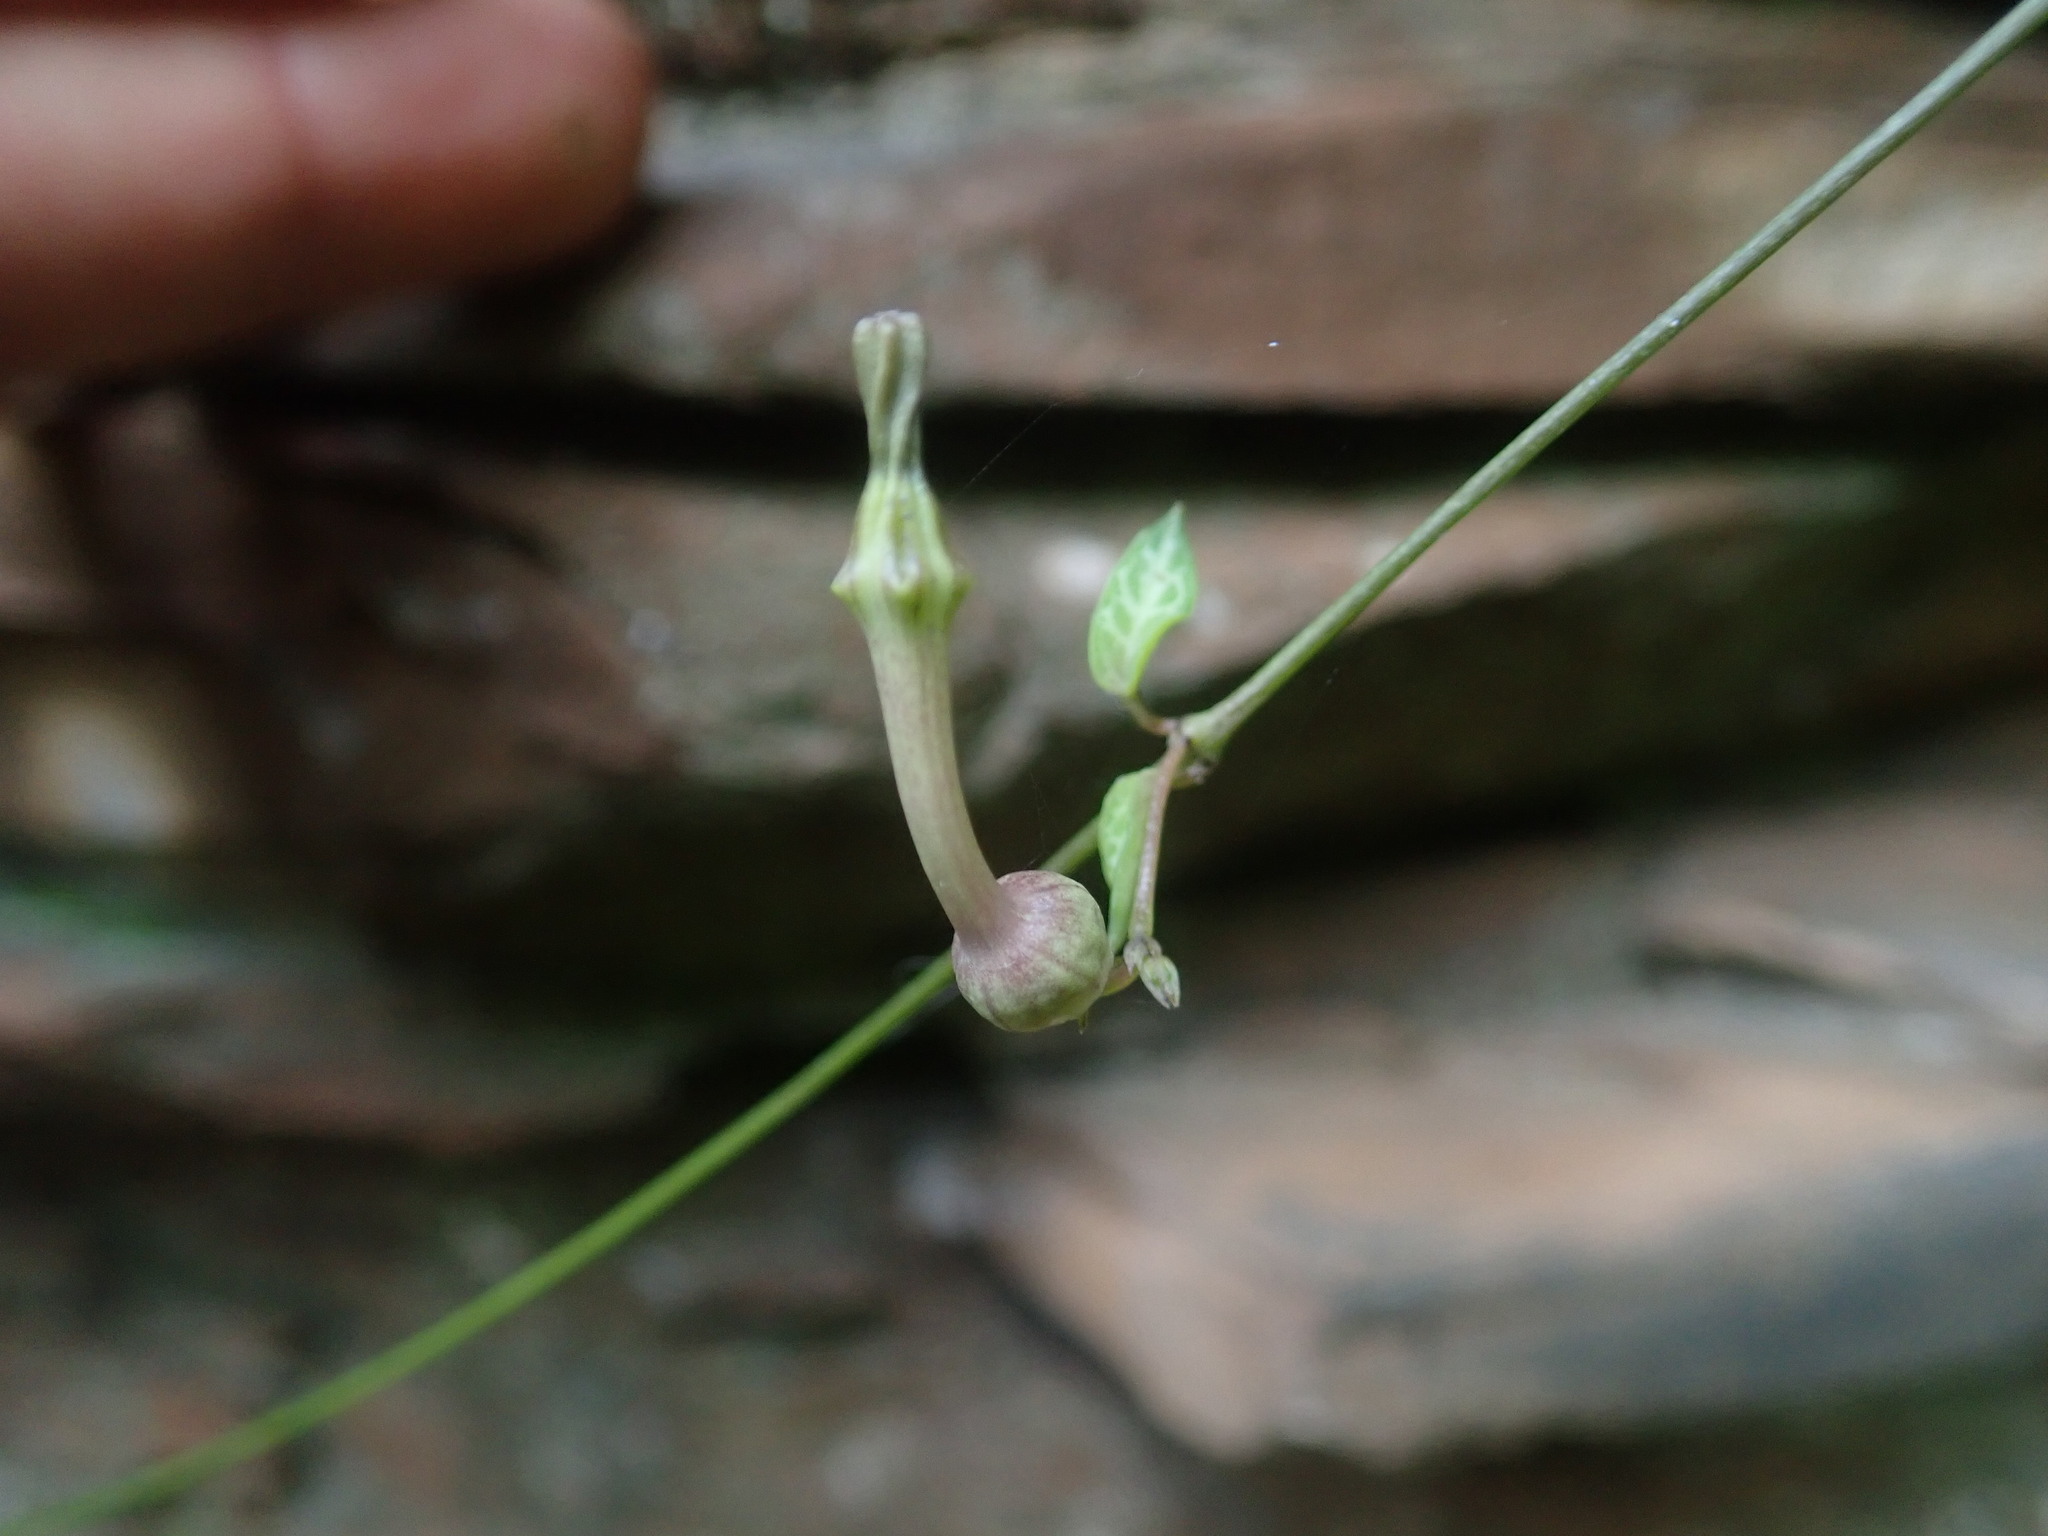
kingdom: Plantae
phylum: Tracheophyta
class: Magnoliopsida
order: Gentianales
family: Apocynaceae
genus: Ceropegia
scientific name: Ceropegia woodii
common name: Hearts entangled
